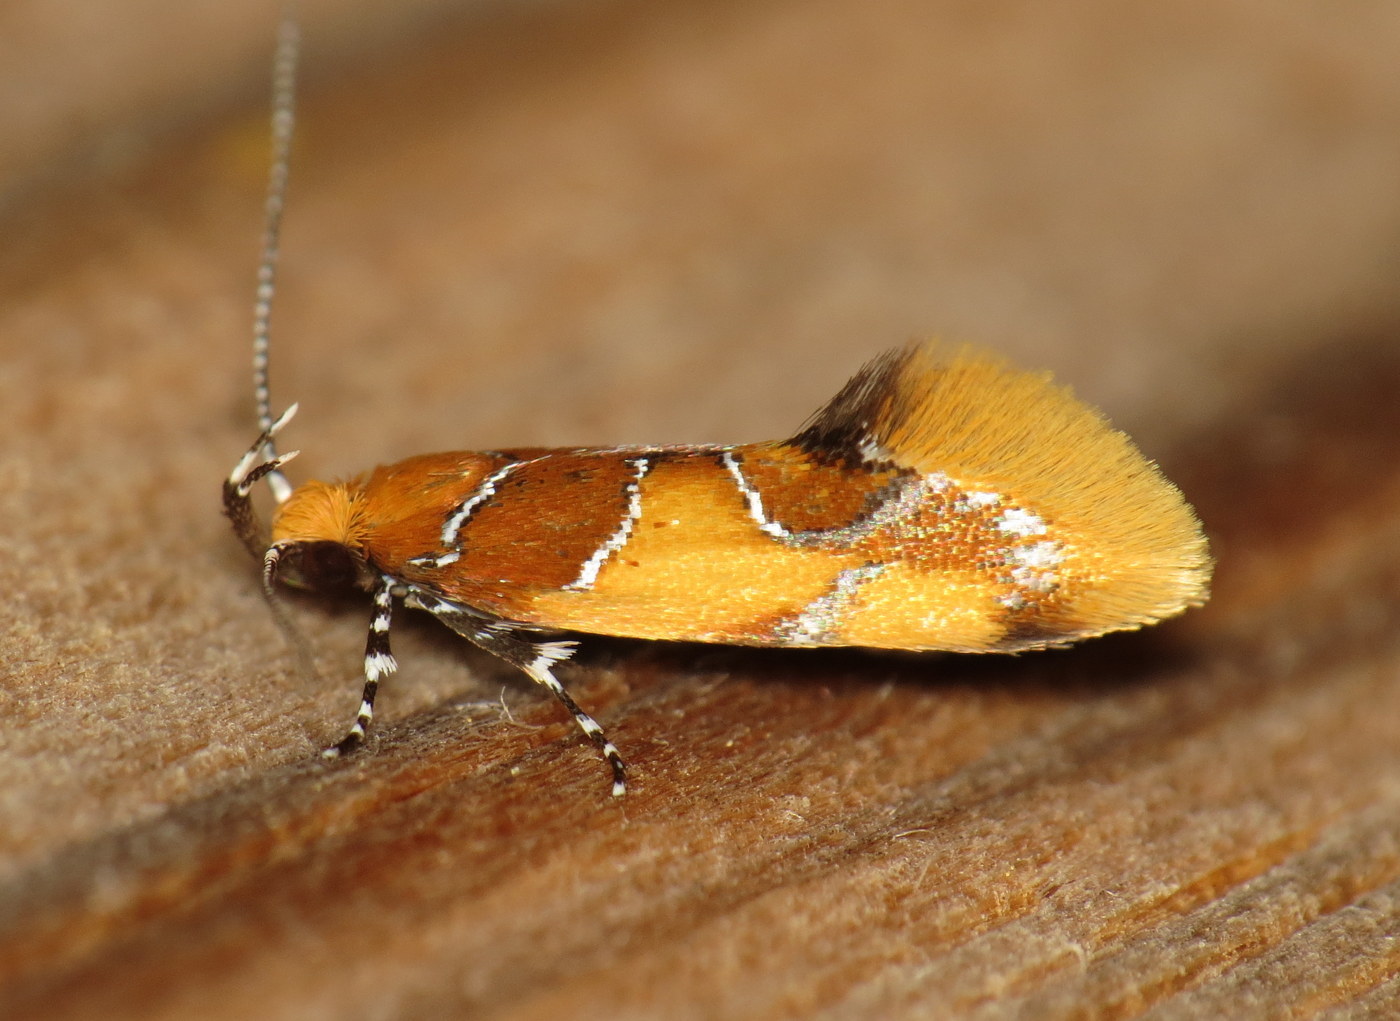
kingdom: Animalia
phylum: Arthropoda
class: Insecta
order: Lepidoptera
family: Oecophoridae
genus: Callima
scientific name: Callima argenticinctella
